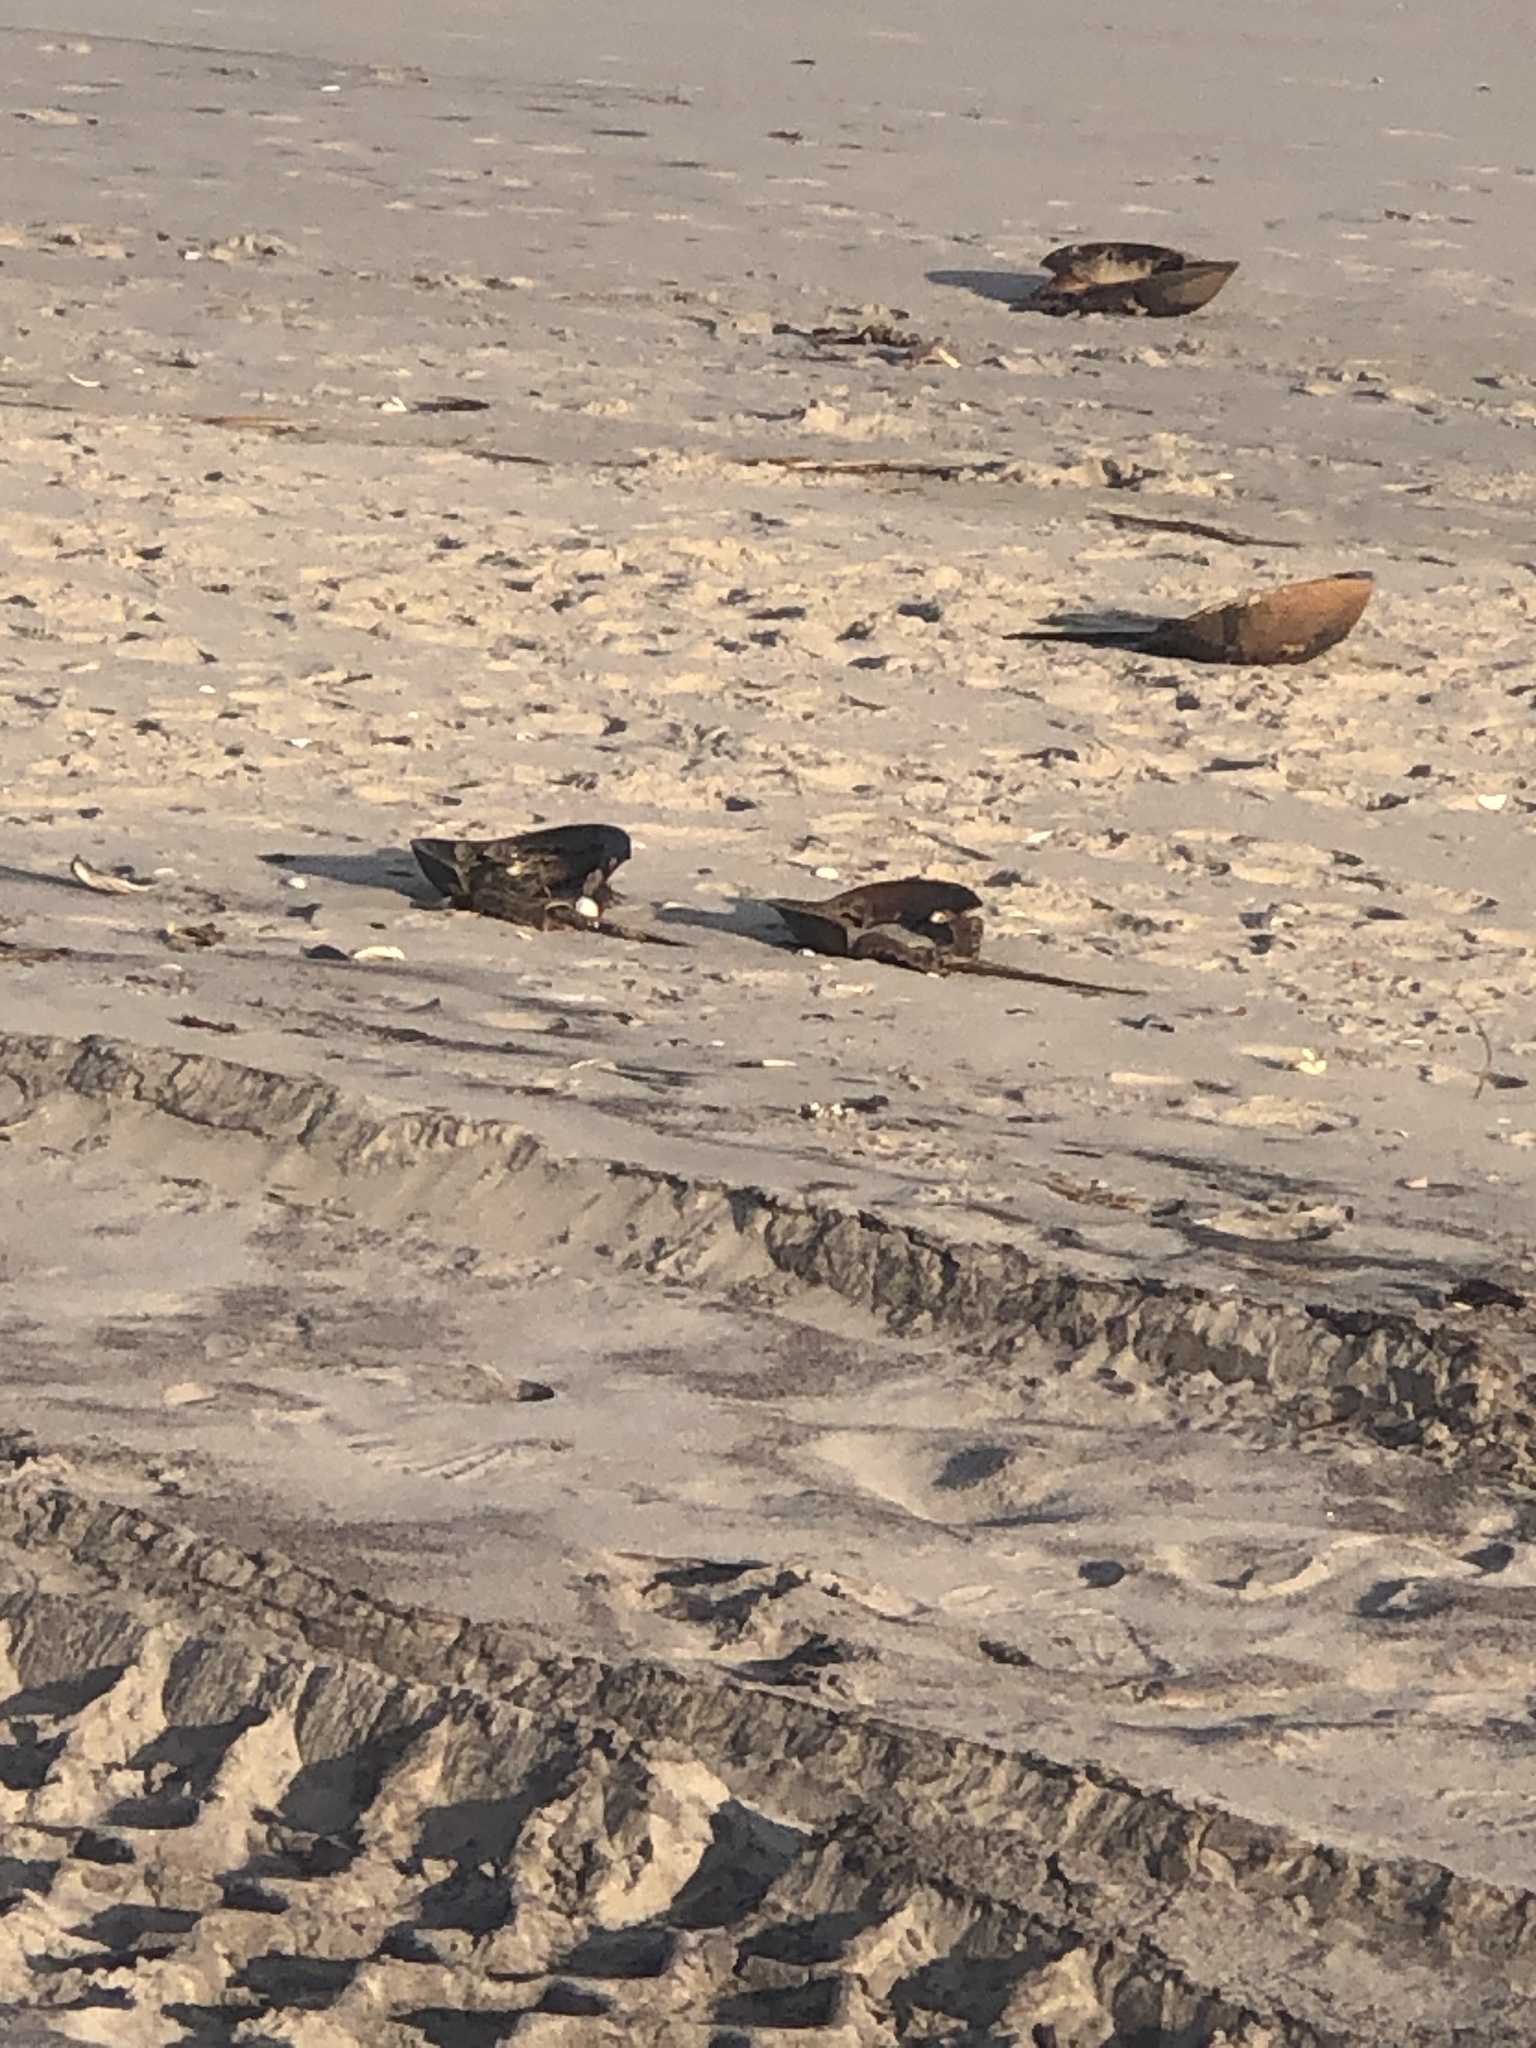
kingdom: Animalia
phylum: Arthropoda
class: Merostomata
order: Xiphosurida
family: Limulidae
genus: Limulus
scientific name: Limulus polyphemus
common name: Horseshoe crab
